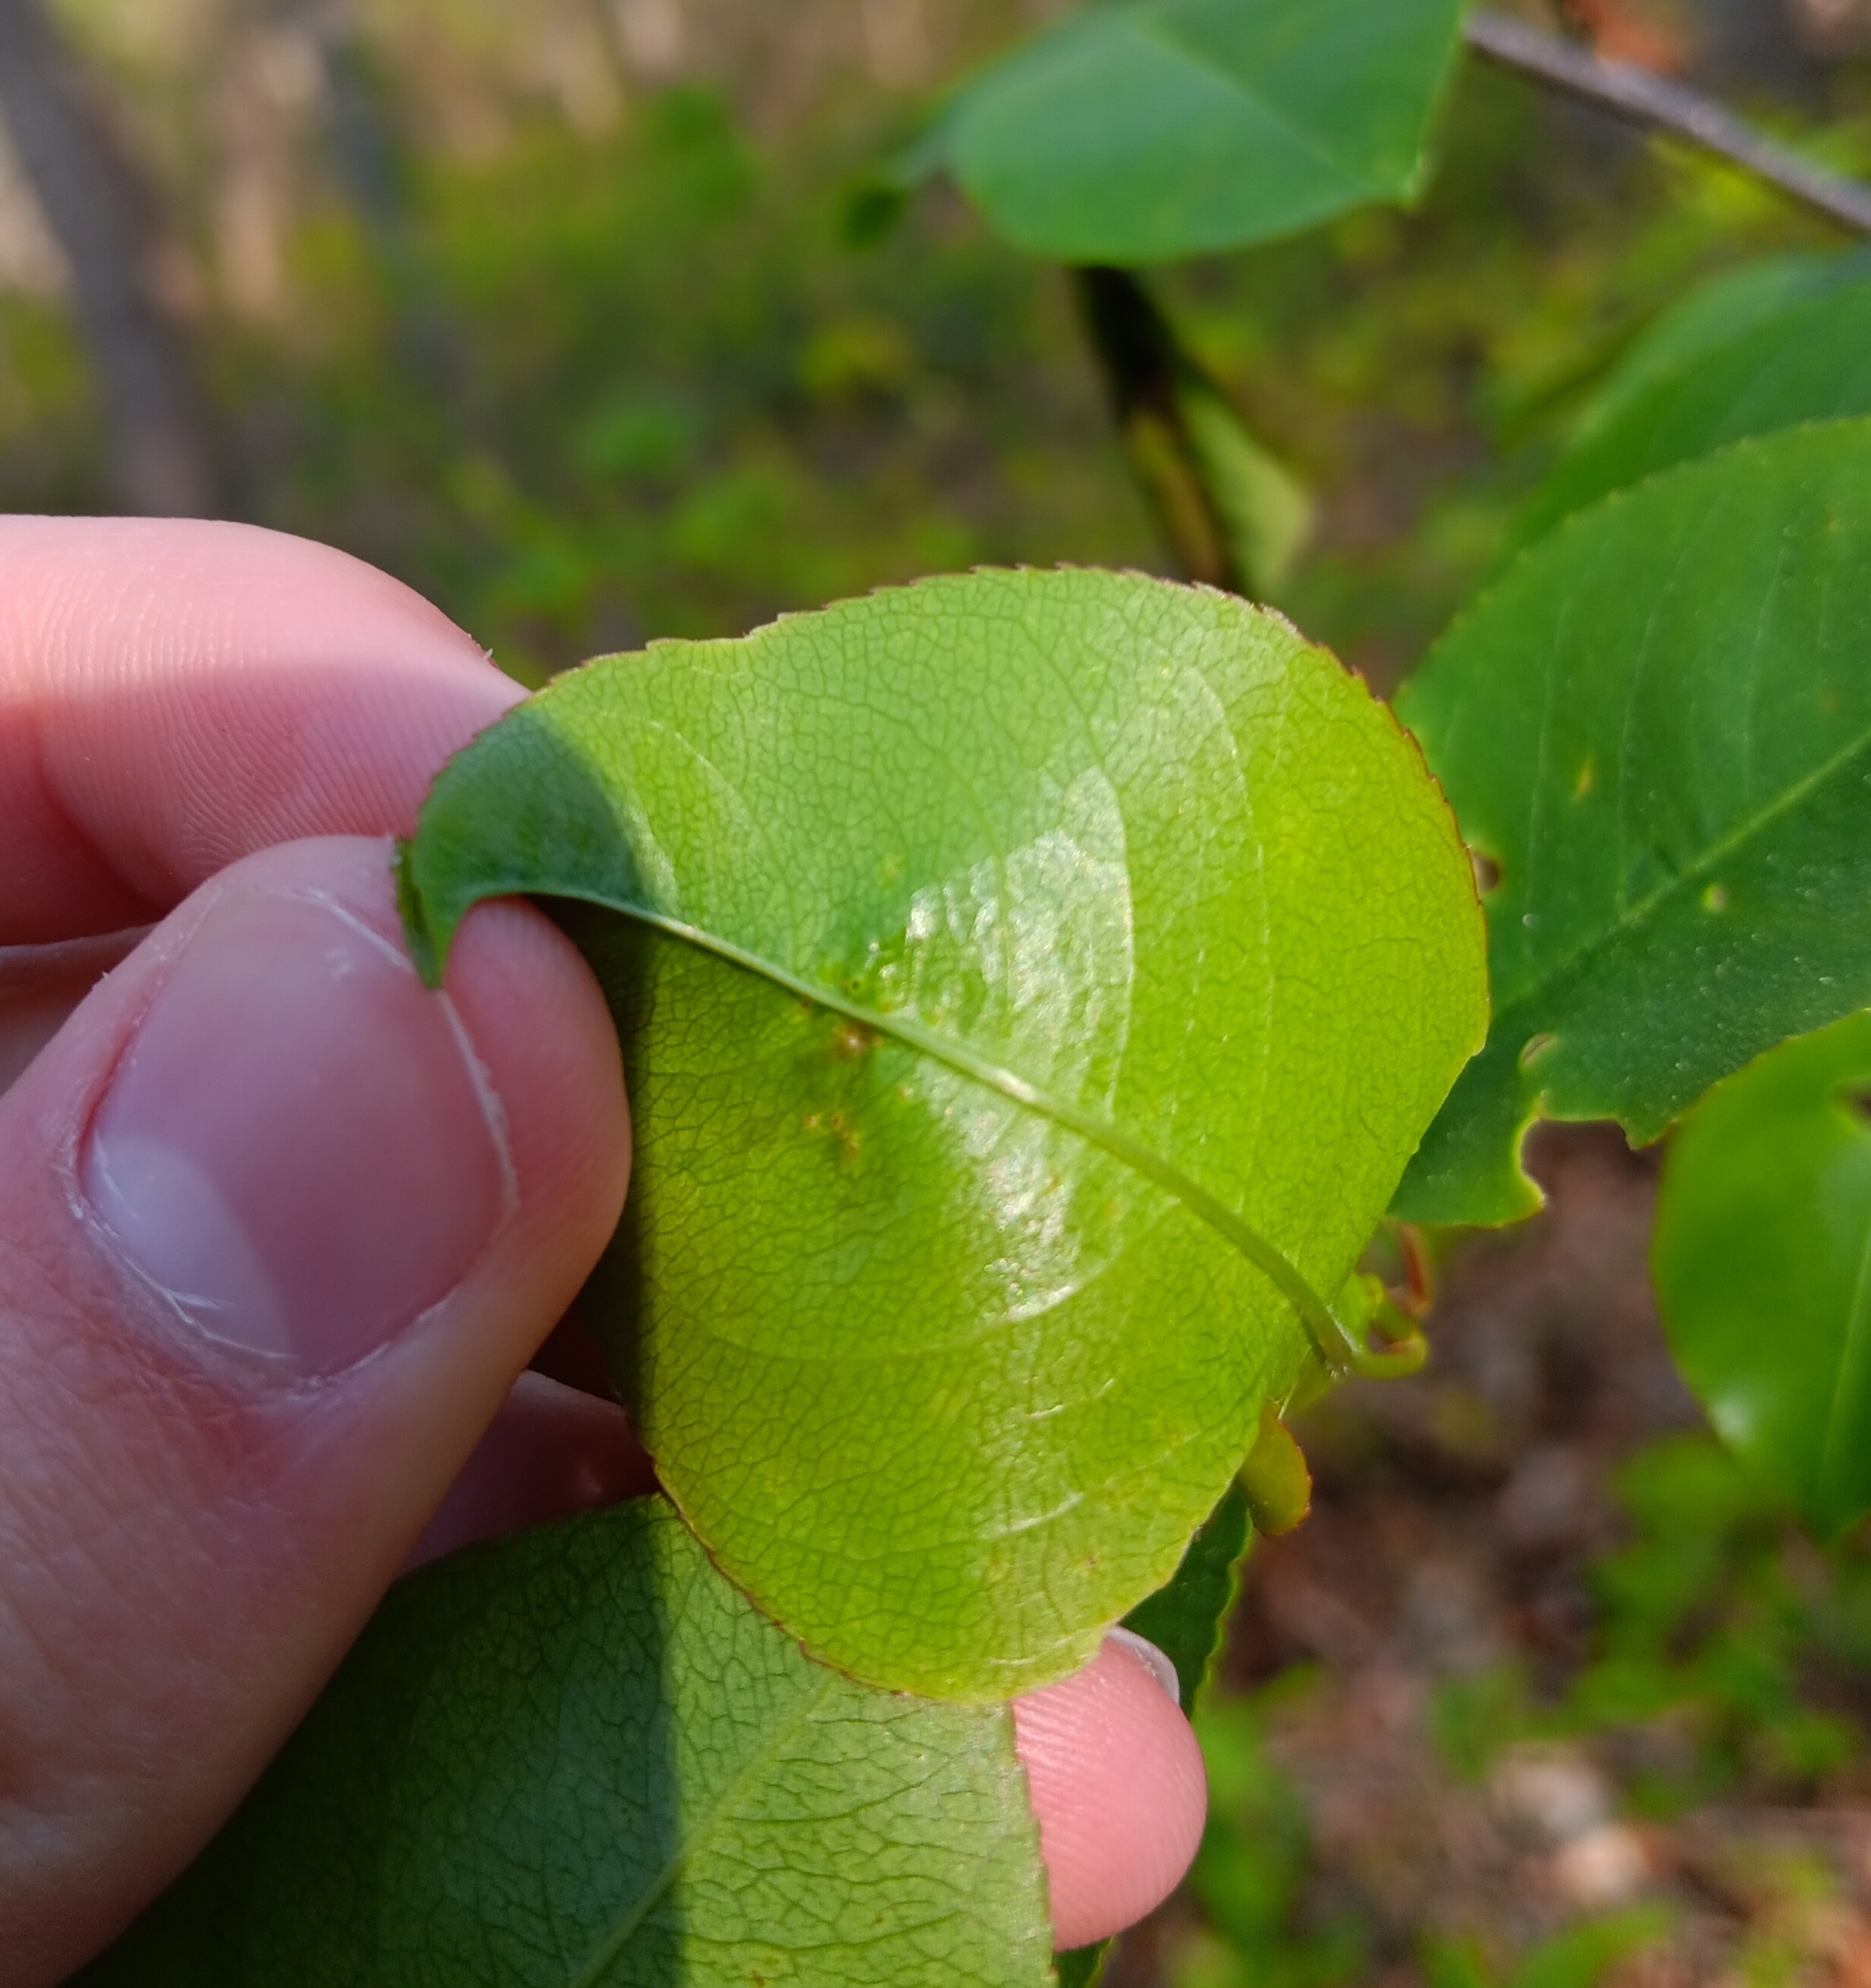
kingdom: Animalia
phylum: Arthropoda
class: Arachnida
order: Trombidiformes
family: Eriophyidae
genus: Eriophyes
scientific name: Eriophyes
